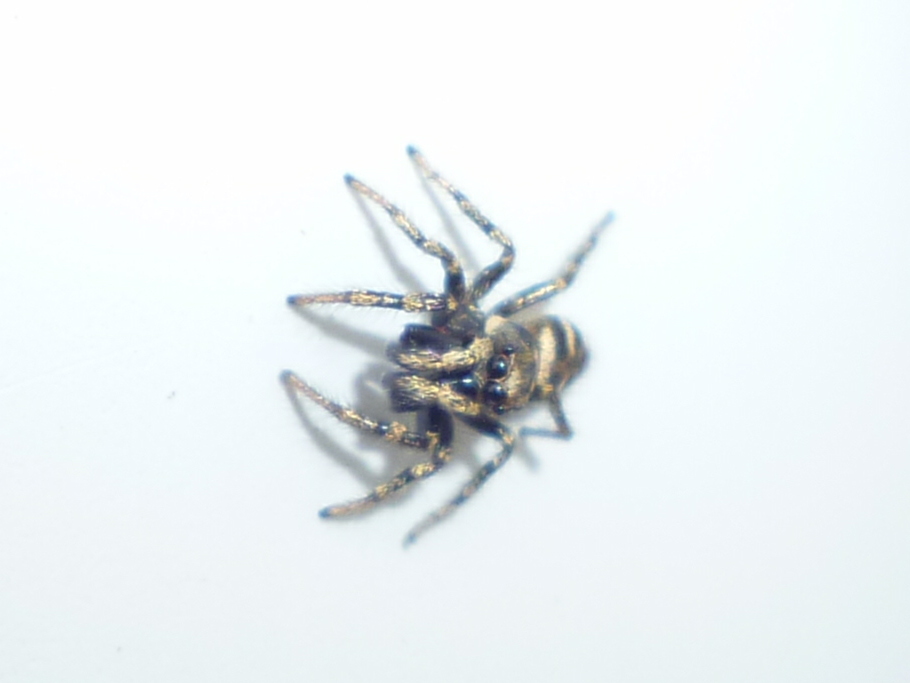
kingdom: Animalia
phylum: Arthropoda
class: Arachnida
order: Araneae
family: Salticidae
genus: Salticus
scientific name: Salticus scenicus
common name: Zebra jumper
